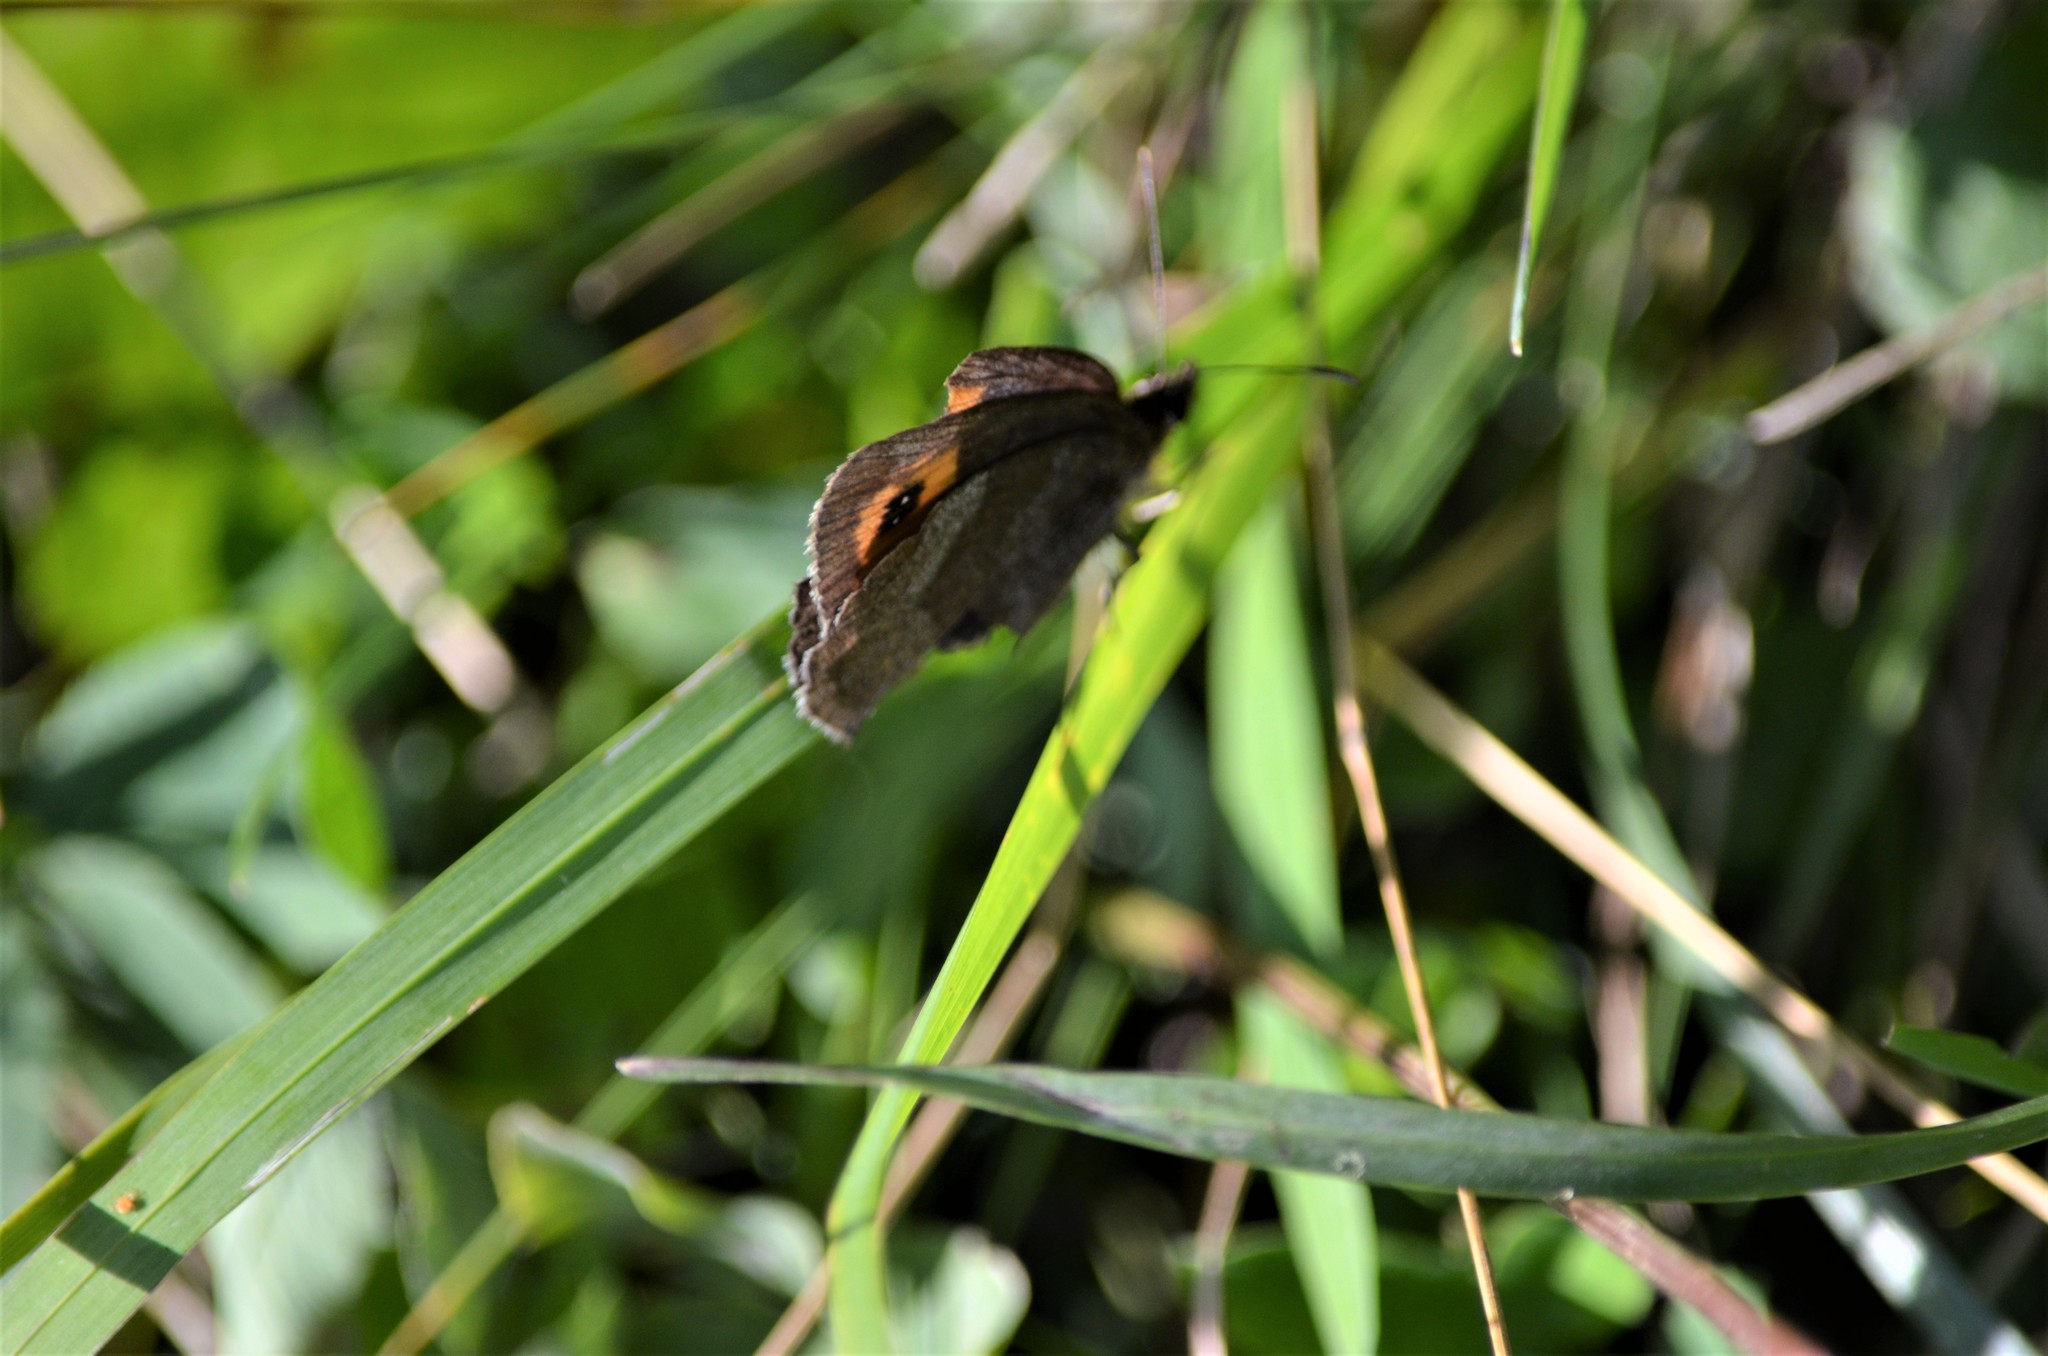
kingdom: Animalia
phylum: Arthropoda
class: Insecta
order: Lepidoptera
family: Nymphalidae
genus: Erebia
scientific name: Erebia aethiops
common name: Scotch argus
